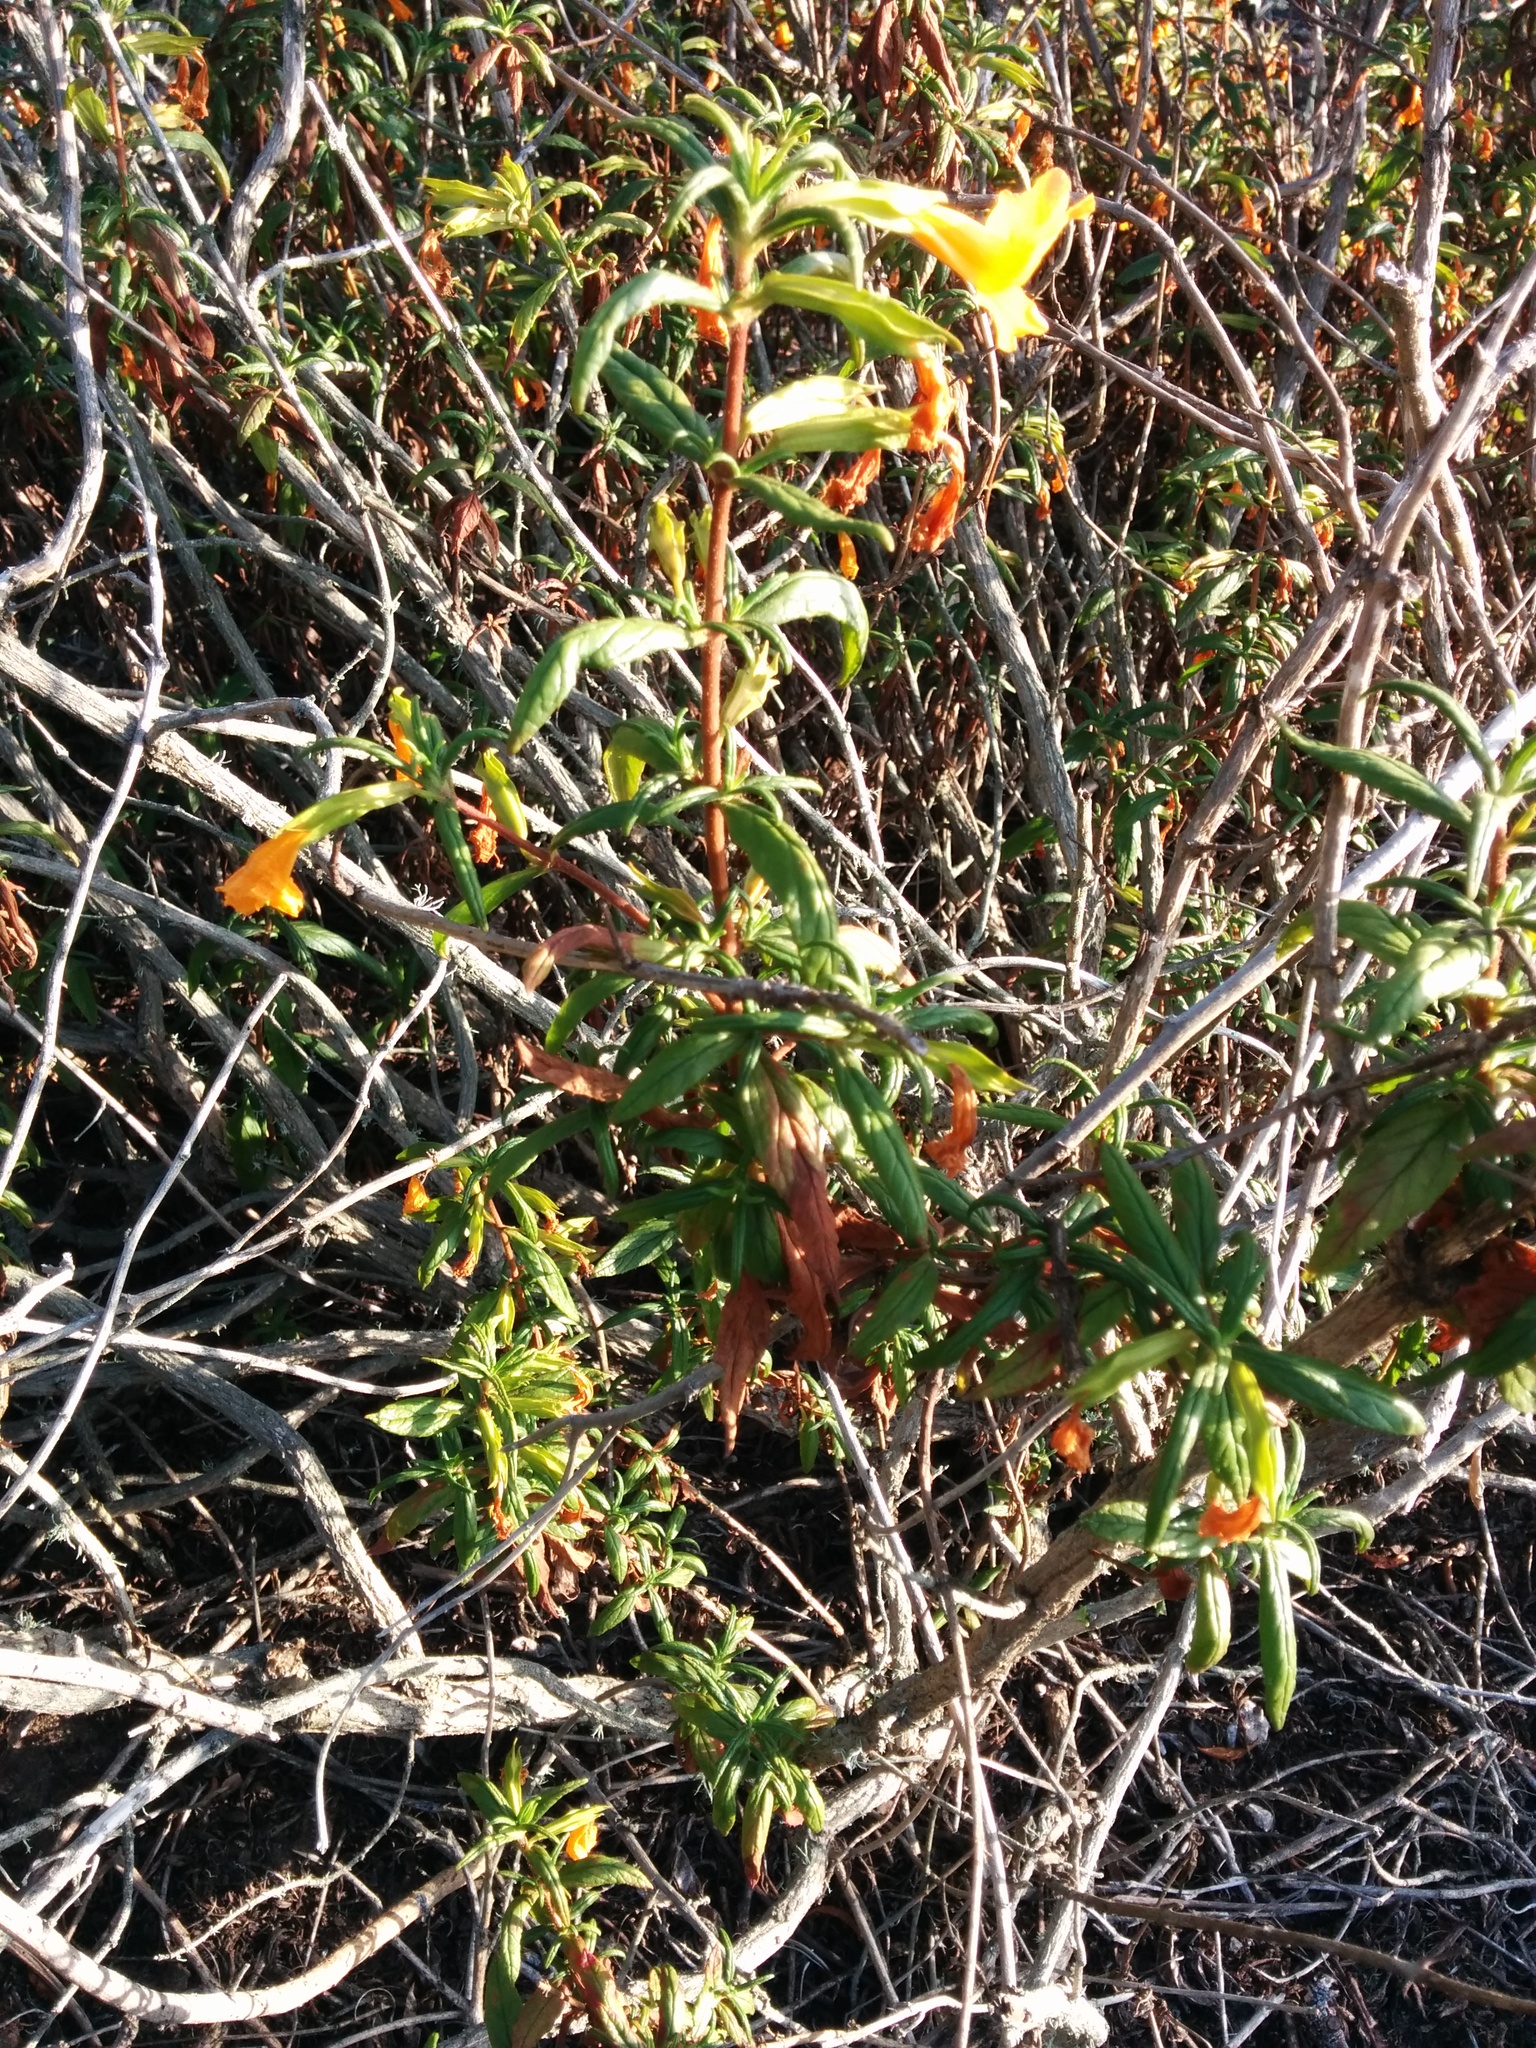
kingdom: Plantae
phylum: Tracheophyta
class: Magnoliopsida
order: Lamiales
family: Phrymaceae
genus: Diplacus
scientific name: Diplacus aurantiacus
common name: Bush monkey-flower
